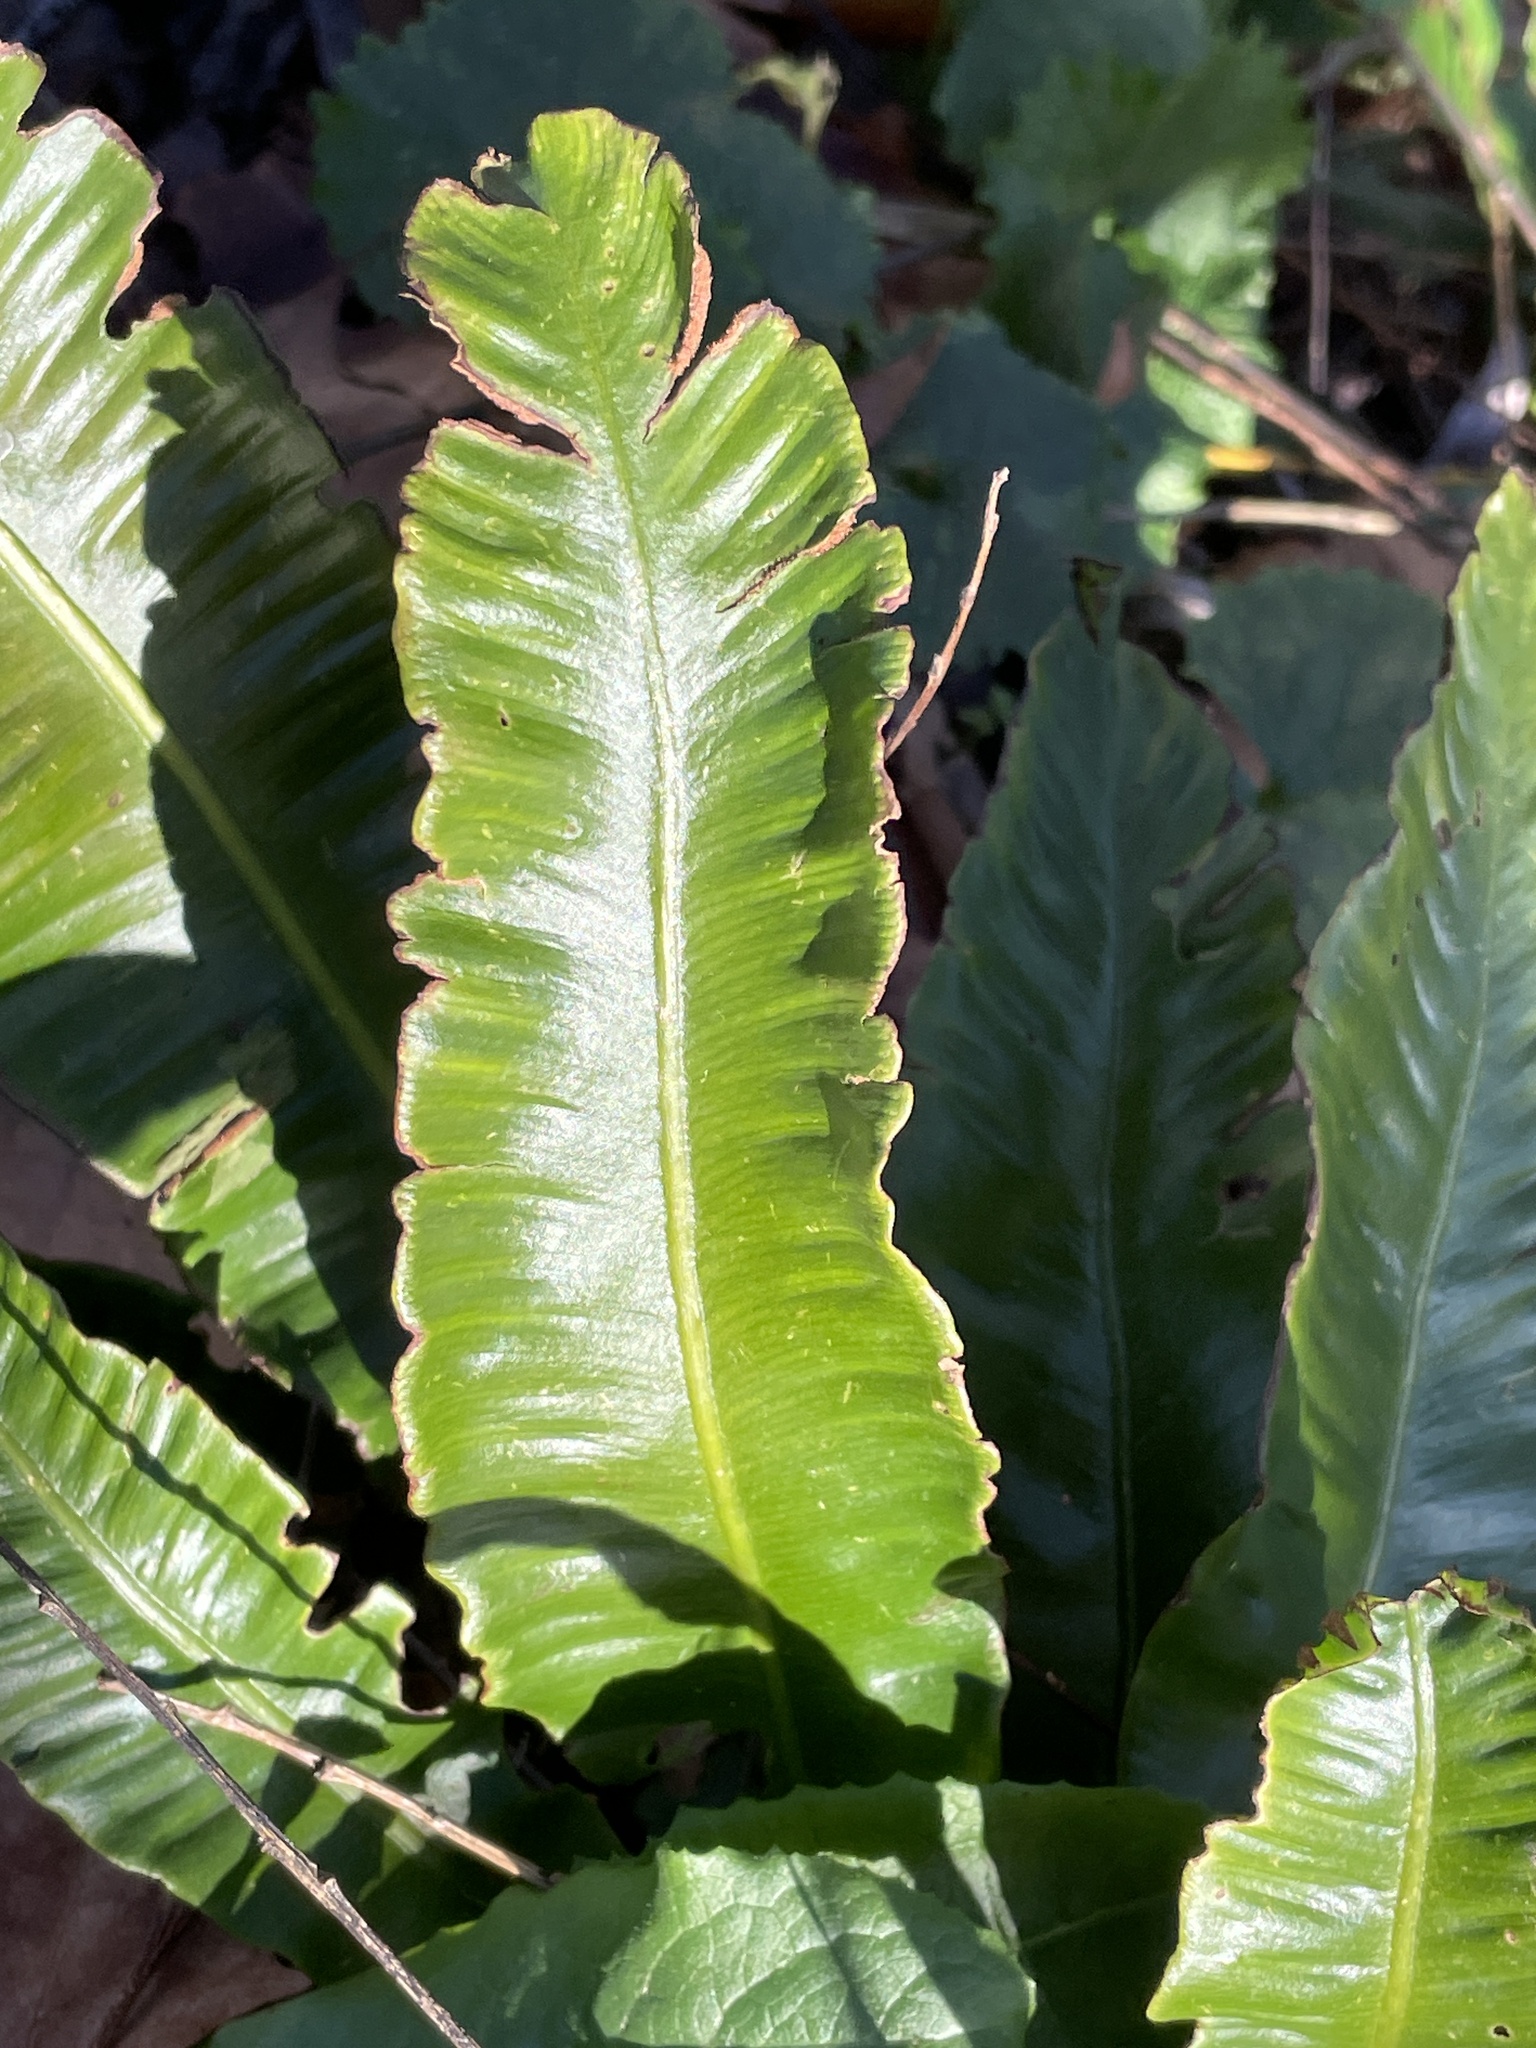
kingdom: Plantae
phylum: Tracheophyta
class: Polypodiopsida
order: Polypodiales
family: Aspleniaceae
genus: Asplenium
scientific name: Asplenium scolopendrium
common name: Hart's-tongue fern
